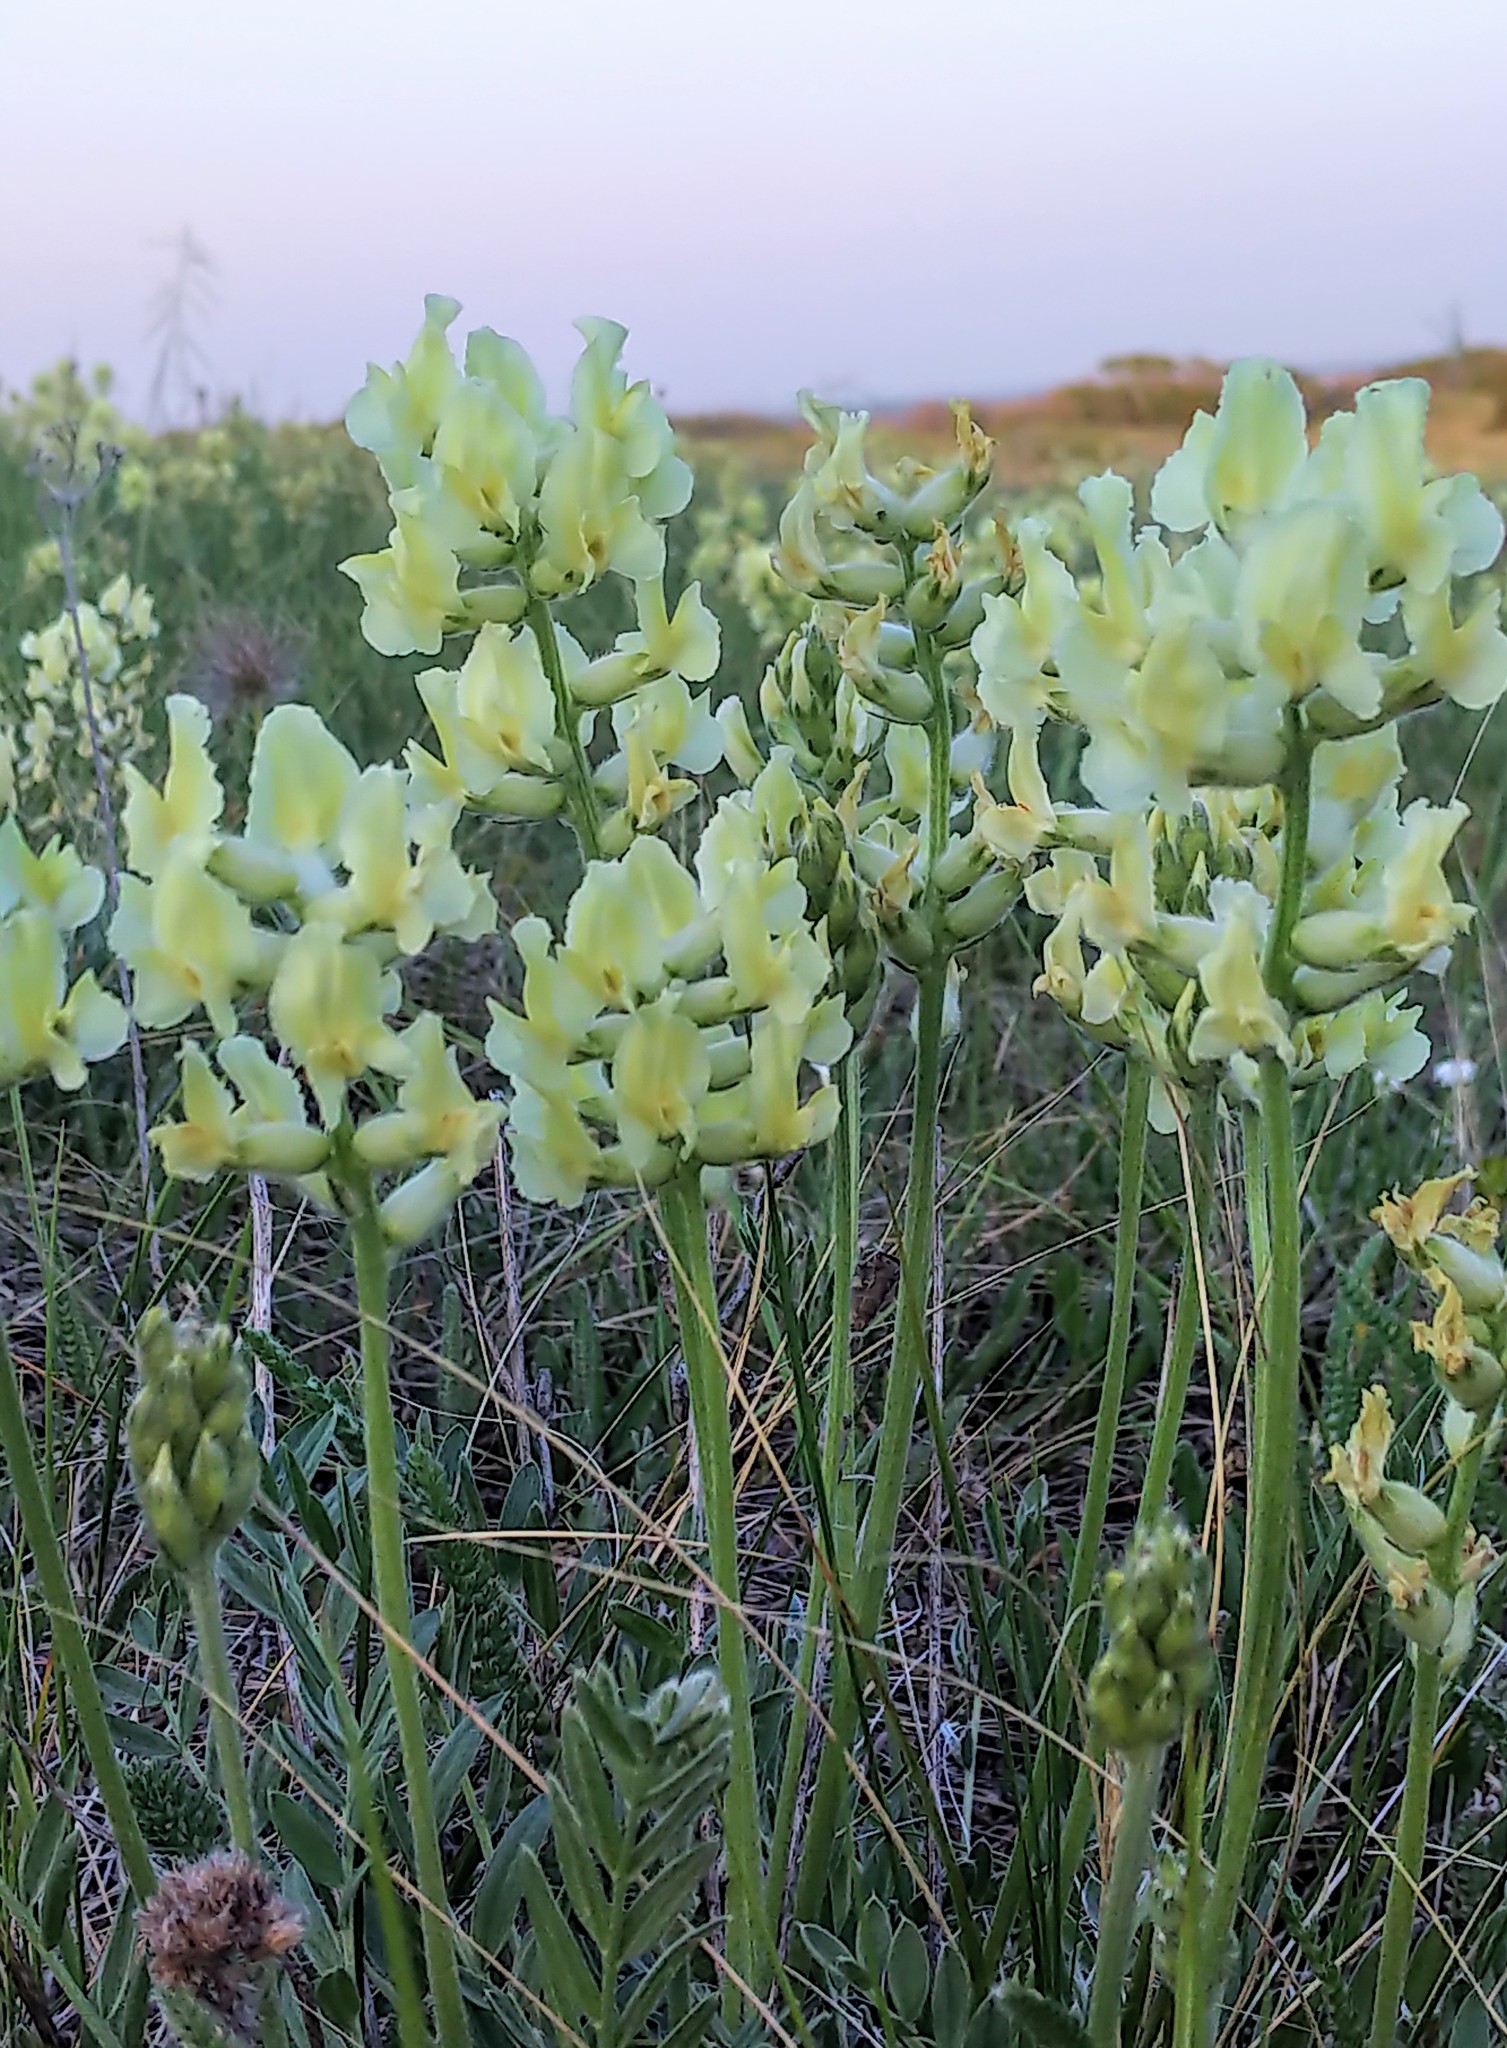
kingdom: Plantae
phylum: Tracheophyta
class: Magnoliopsida
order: Fabales
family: Fabaceae
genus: Oxytropis
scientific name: Oxytropis sericea
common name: Silky locoweed
